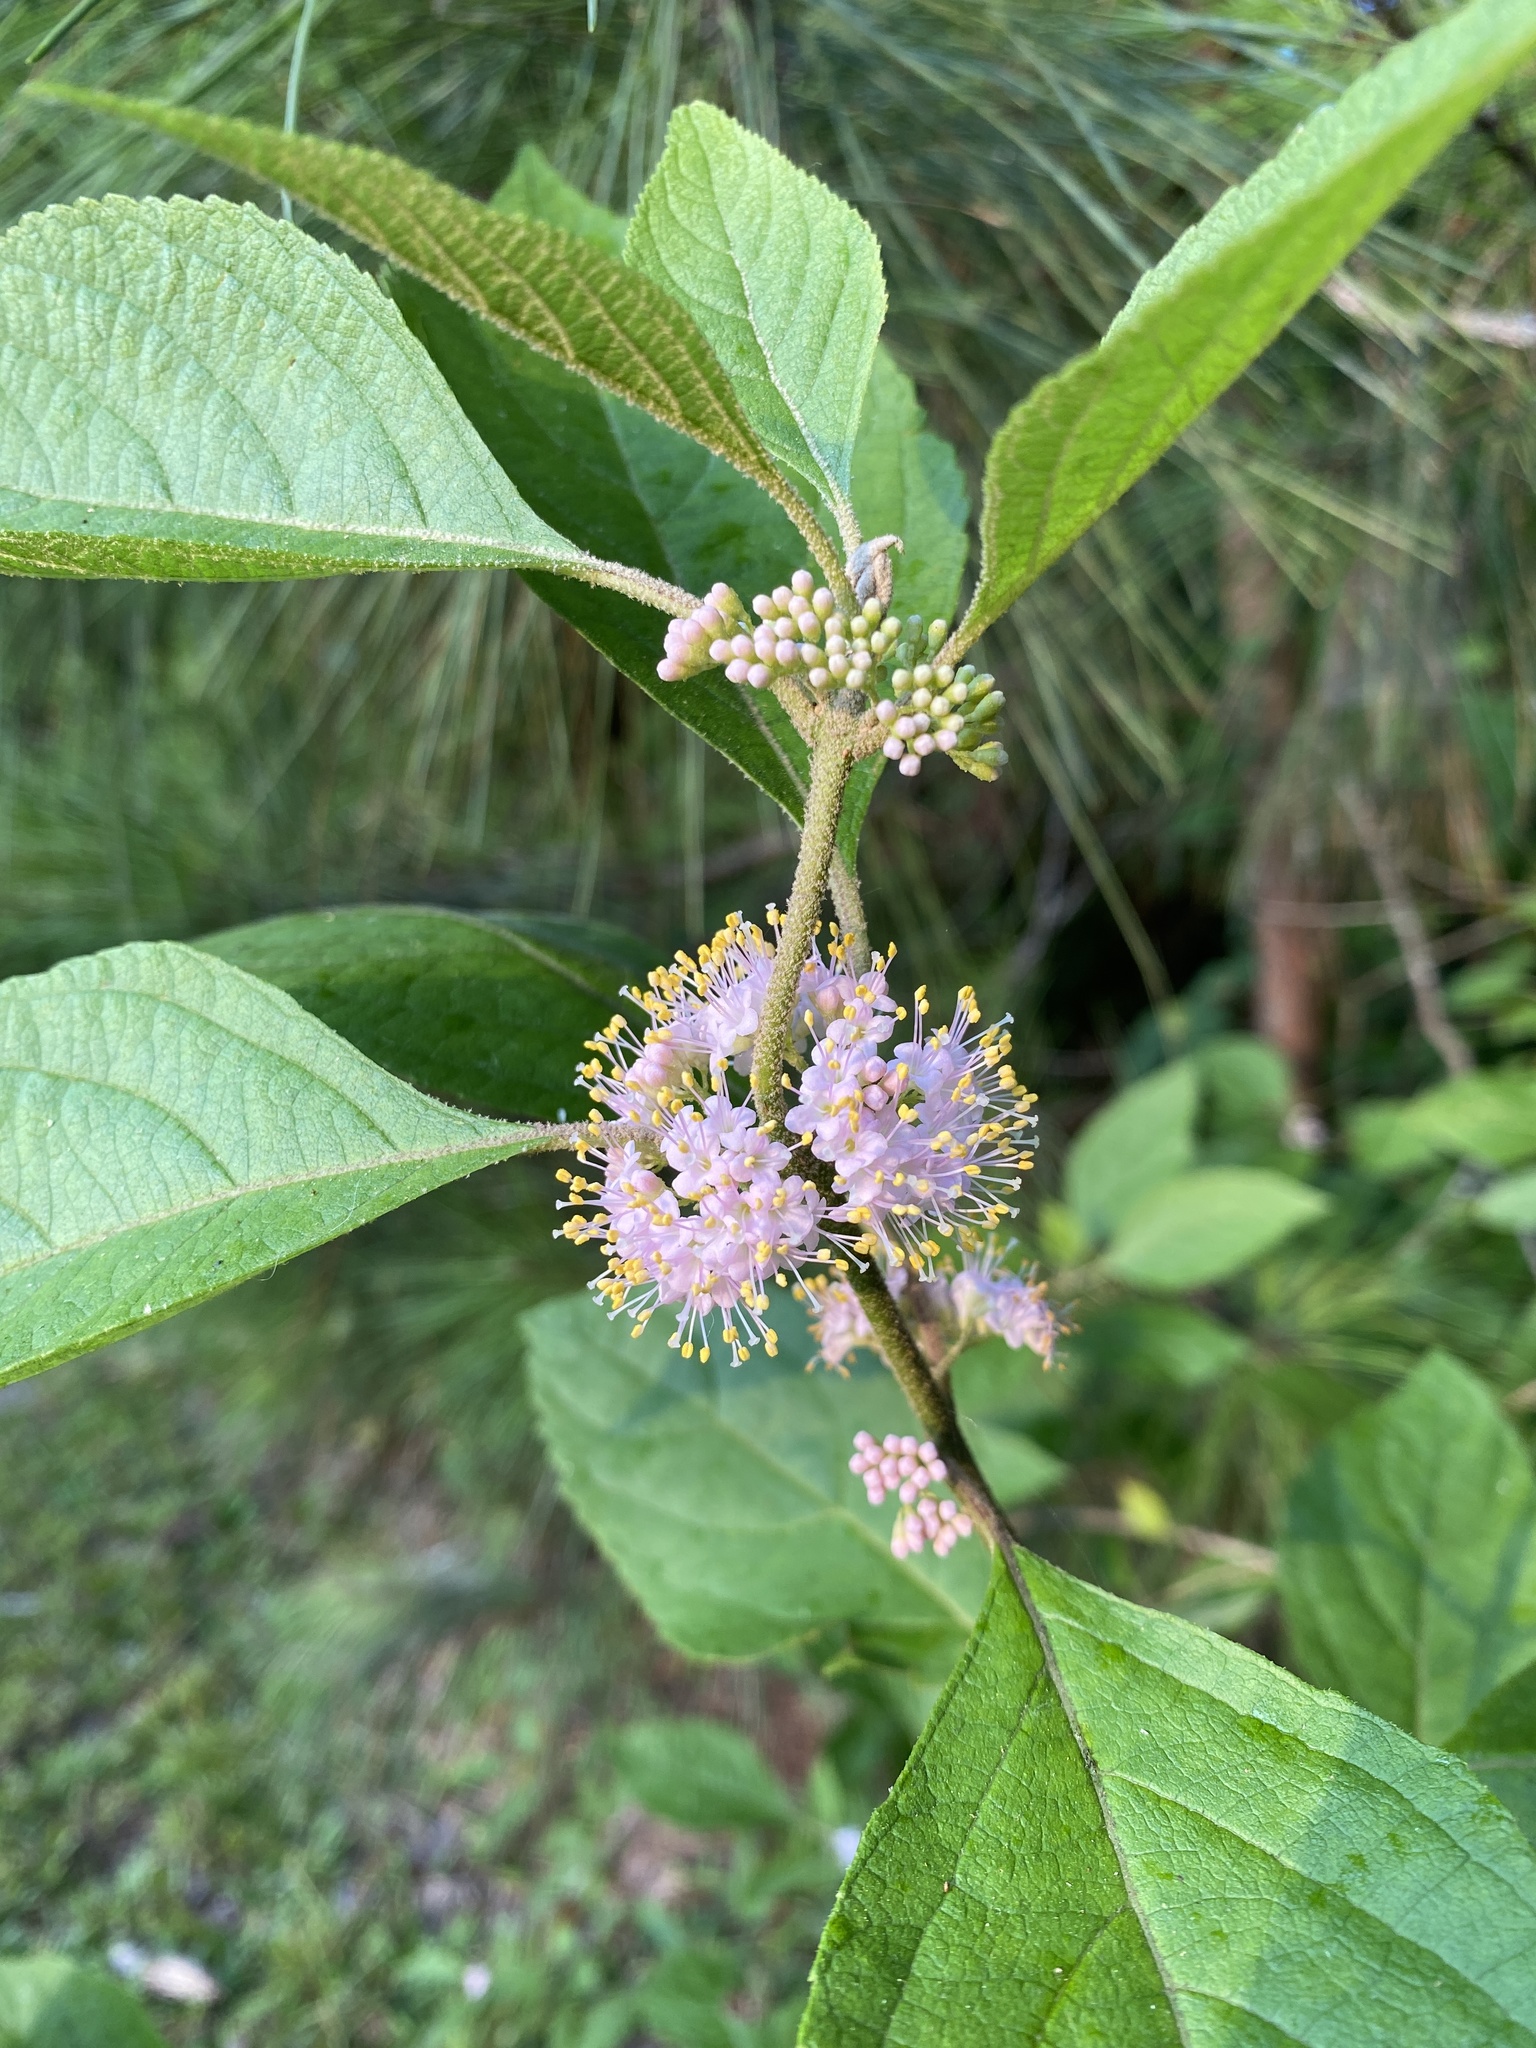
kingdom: Plantae
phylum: Tracheophyta
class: Magnoliopsida
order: Lamiales
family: Lamiaceae
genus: Callicarpa
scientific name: Callicarpa americana
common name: American beautyberry
